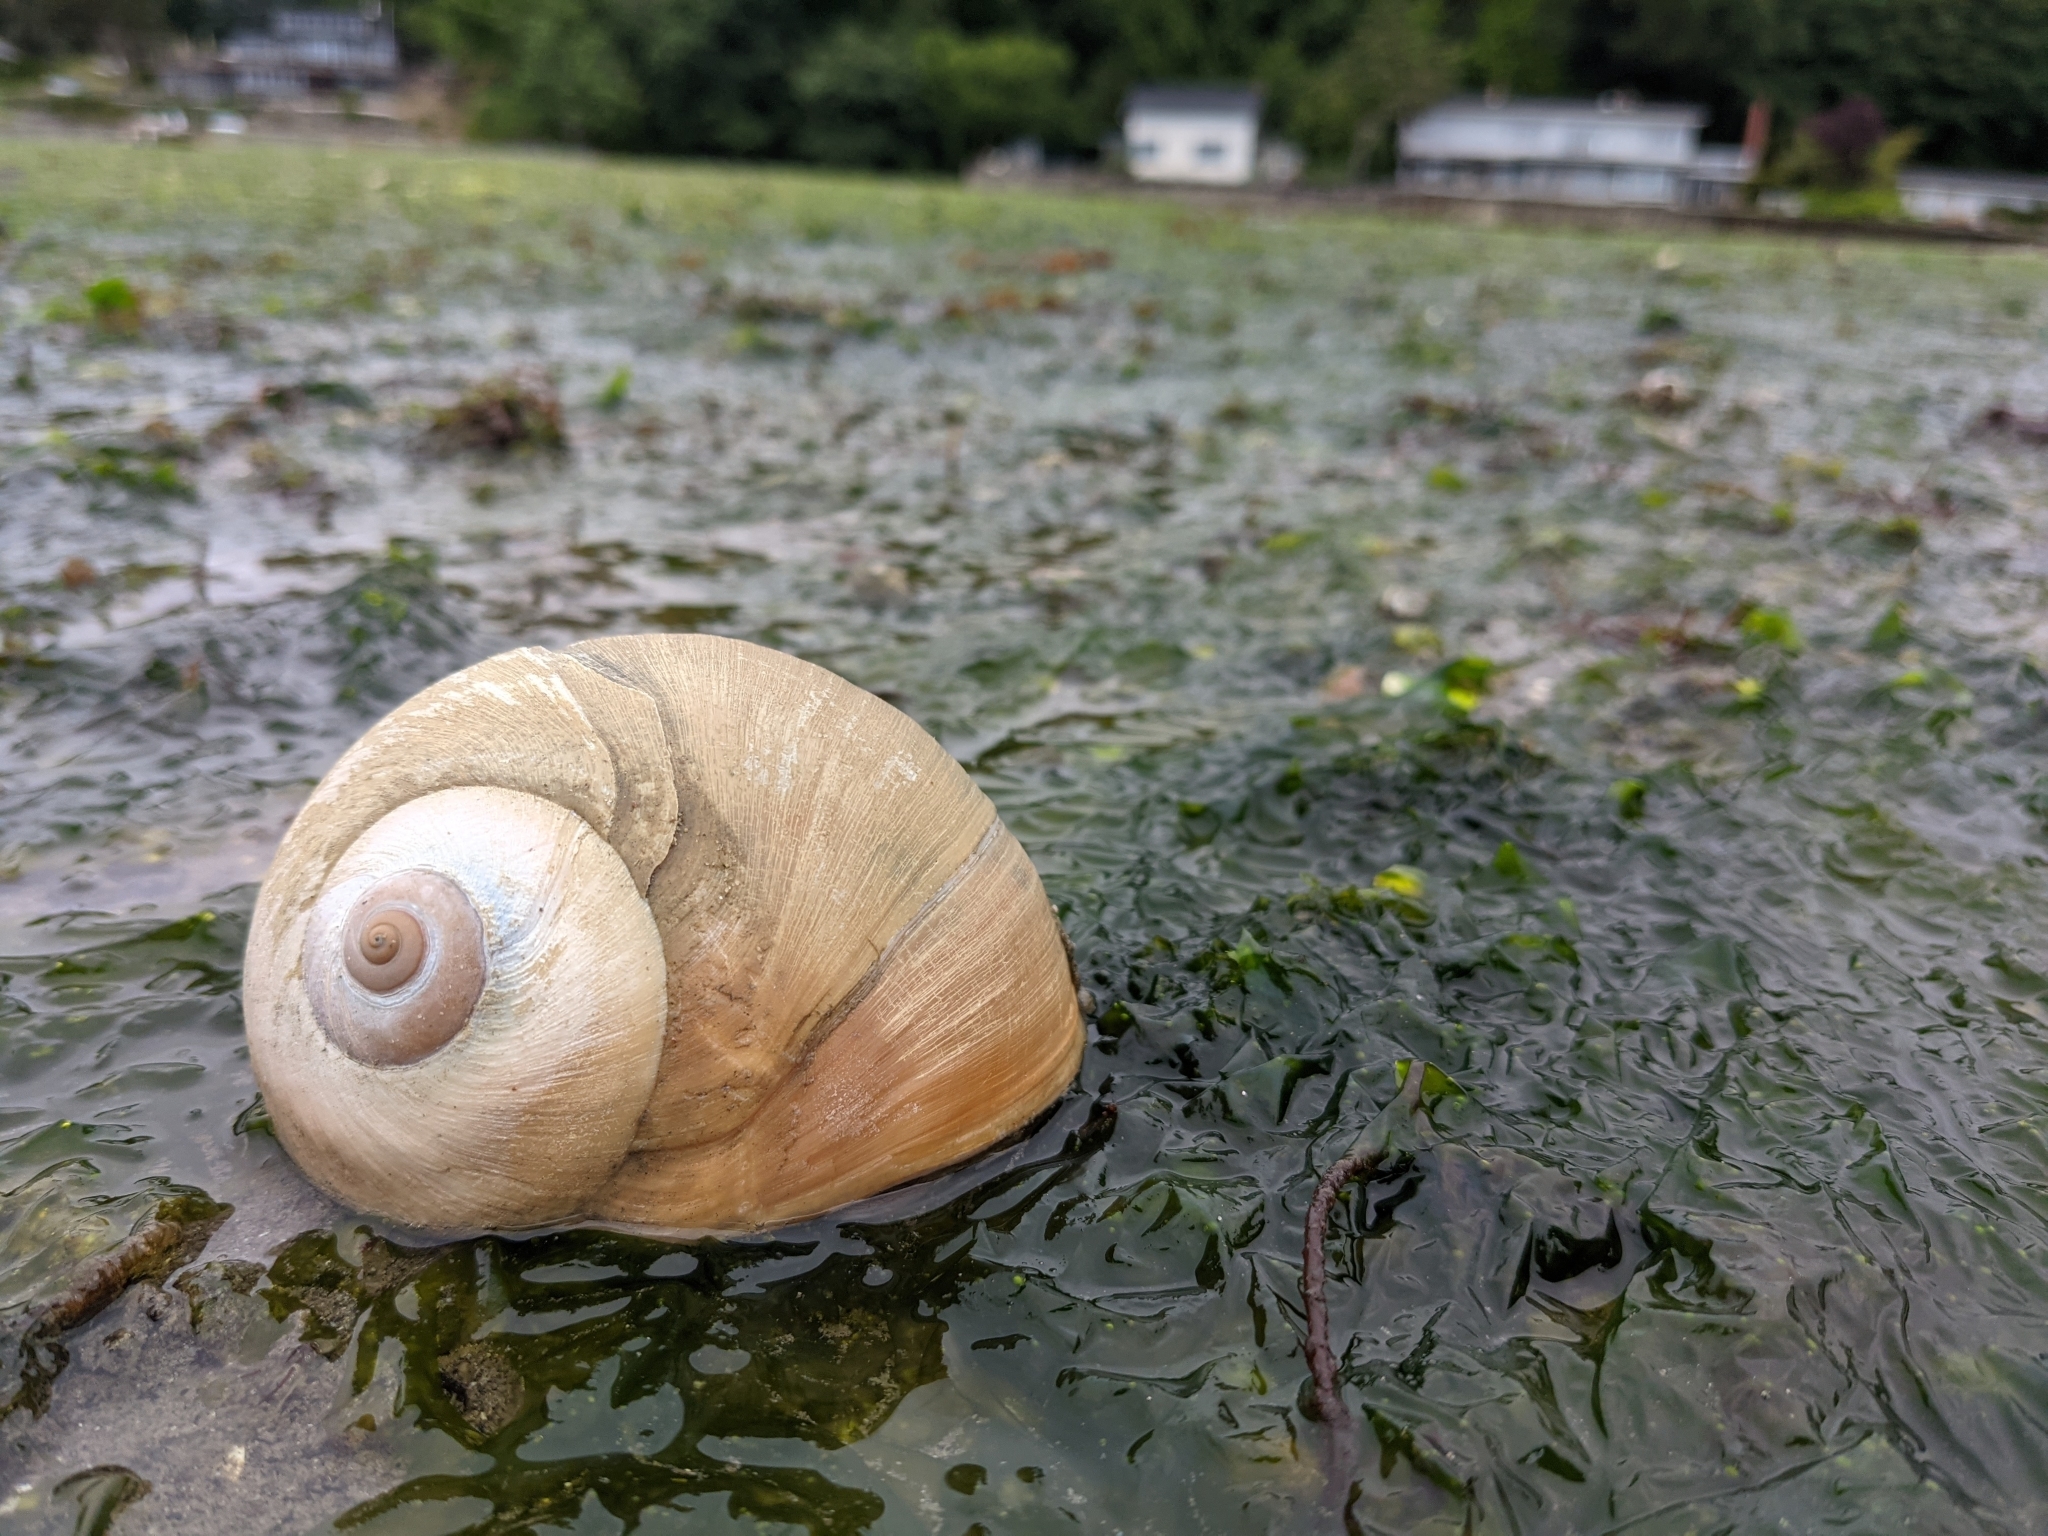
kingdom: Animalia
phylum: Mollusca
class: Gastropoda
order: Littorinimorpha
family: Naticidae
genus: Neverita
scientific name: Neverita lewisii
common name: Lewis' moonsnail
